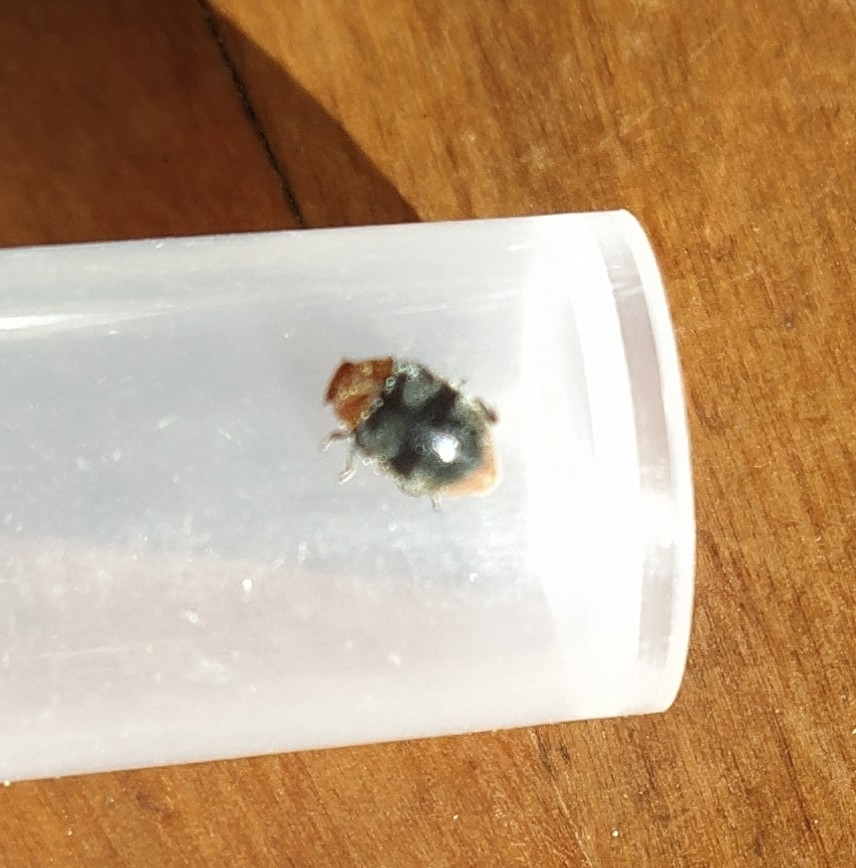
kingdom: Animalia
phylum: Arthropoda
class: Insecta
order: Coleoptera
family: Coccinellidae
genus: Cryptolaemus
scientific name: Cryptolaemus montrouzieri
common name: Mealybug destroyer
